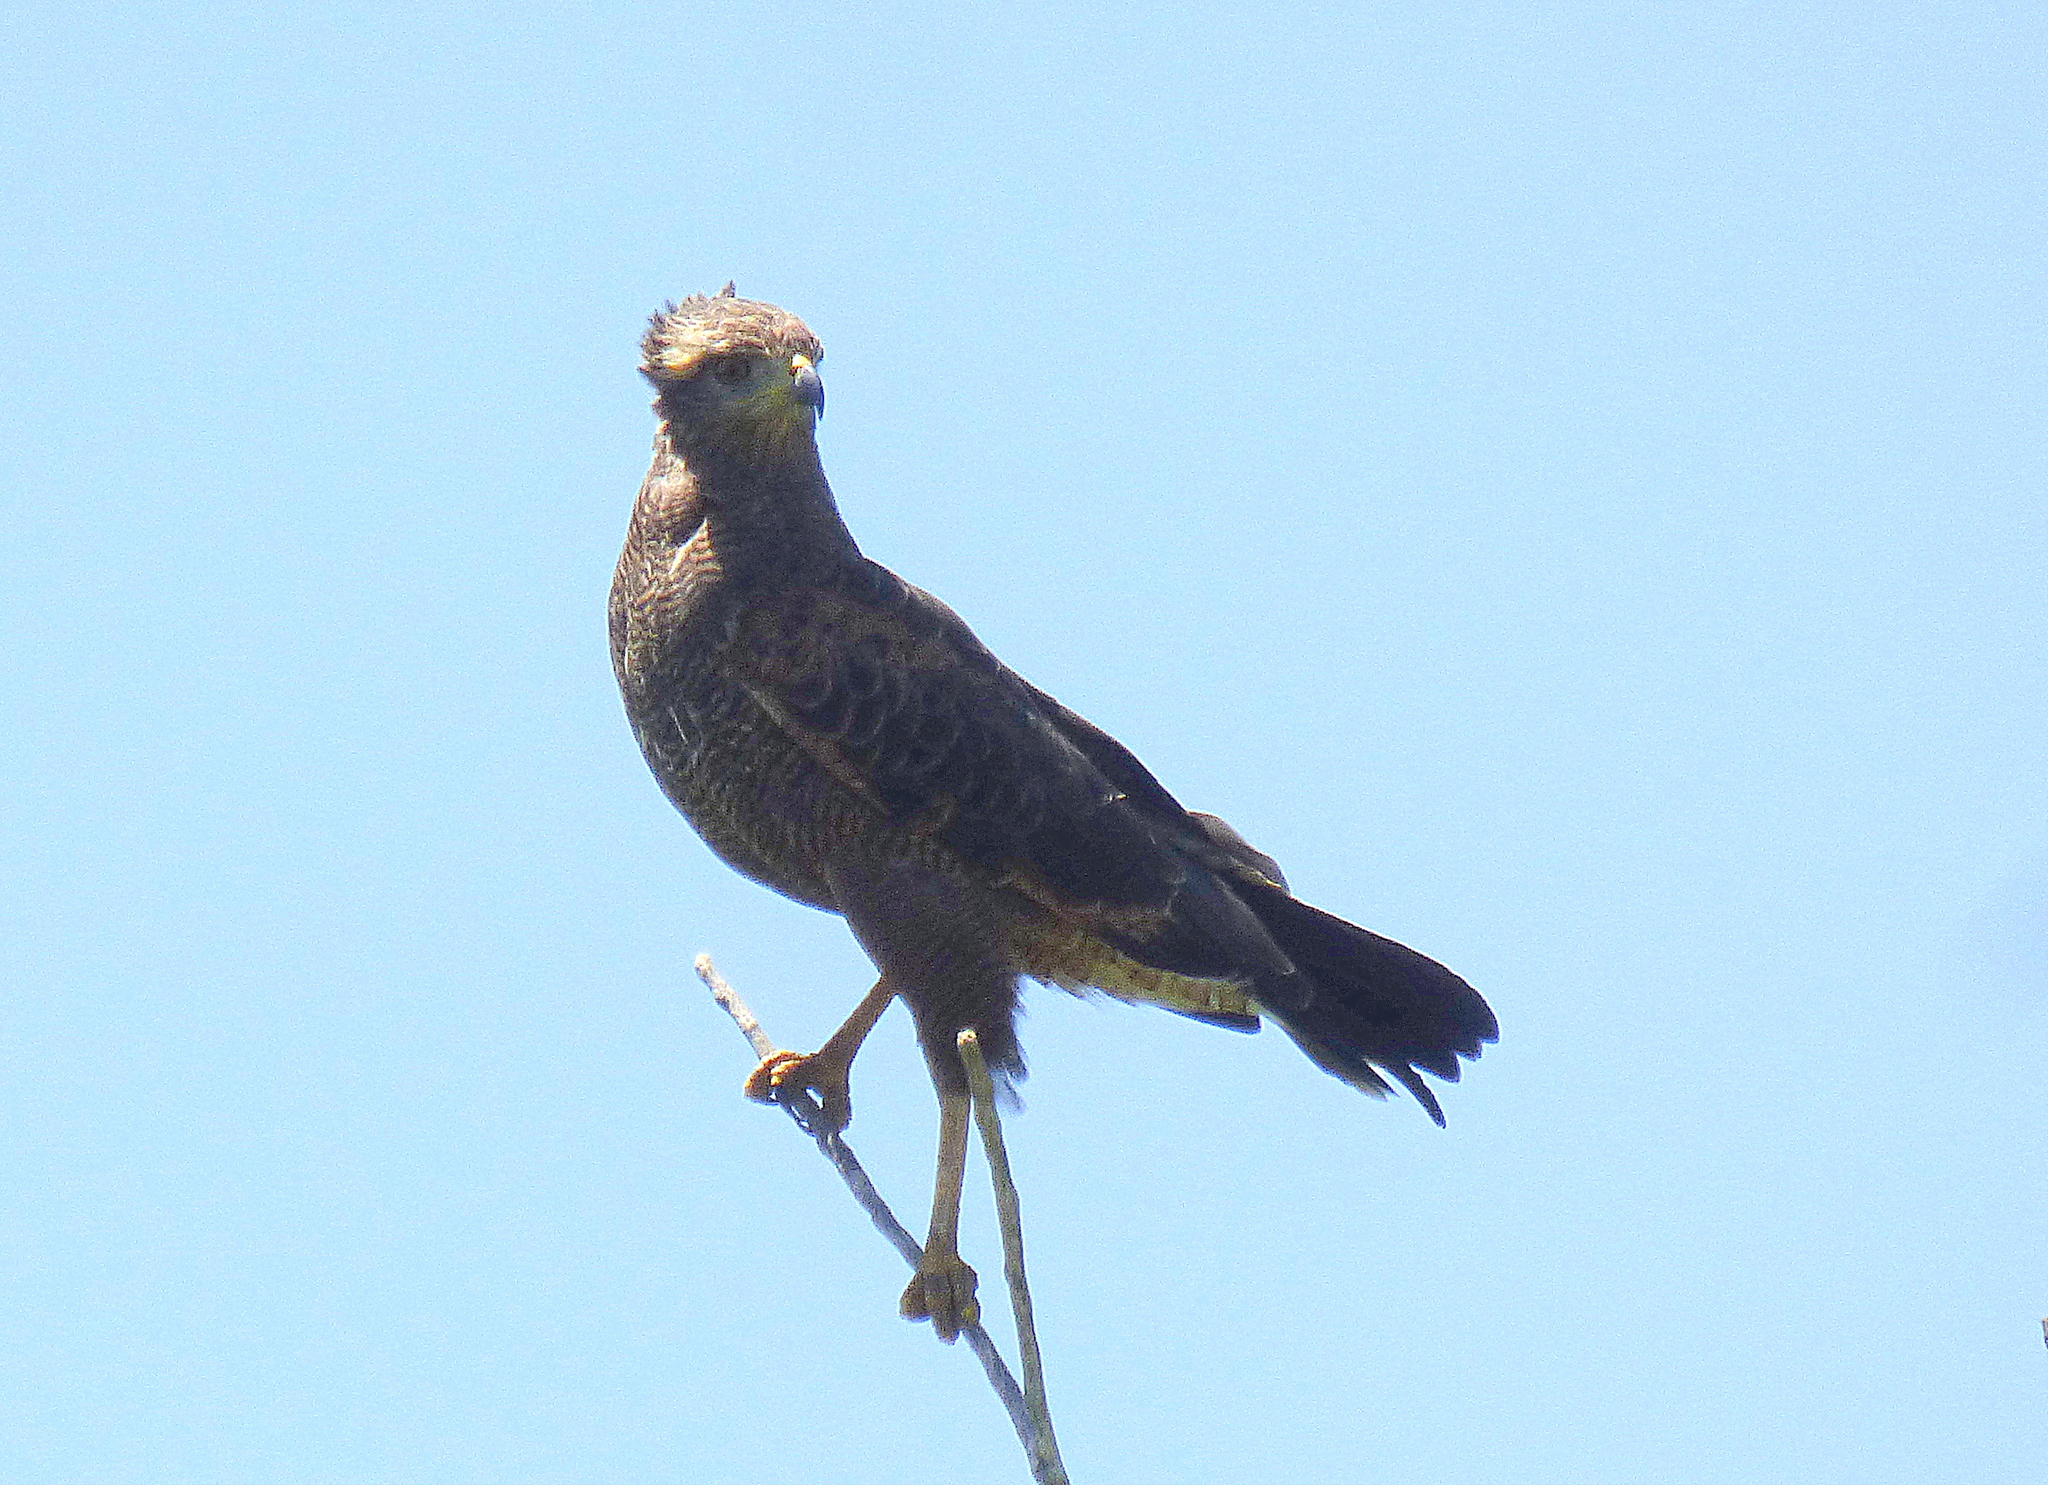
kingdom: Animalia
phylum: Chordata
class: Aves
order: Accipitriformes
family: Accipitridae
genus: Buteogallus
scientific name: Buteogallus meridionalis
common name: Savanna hawk
